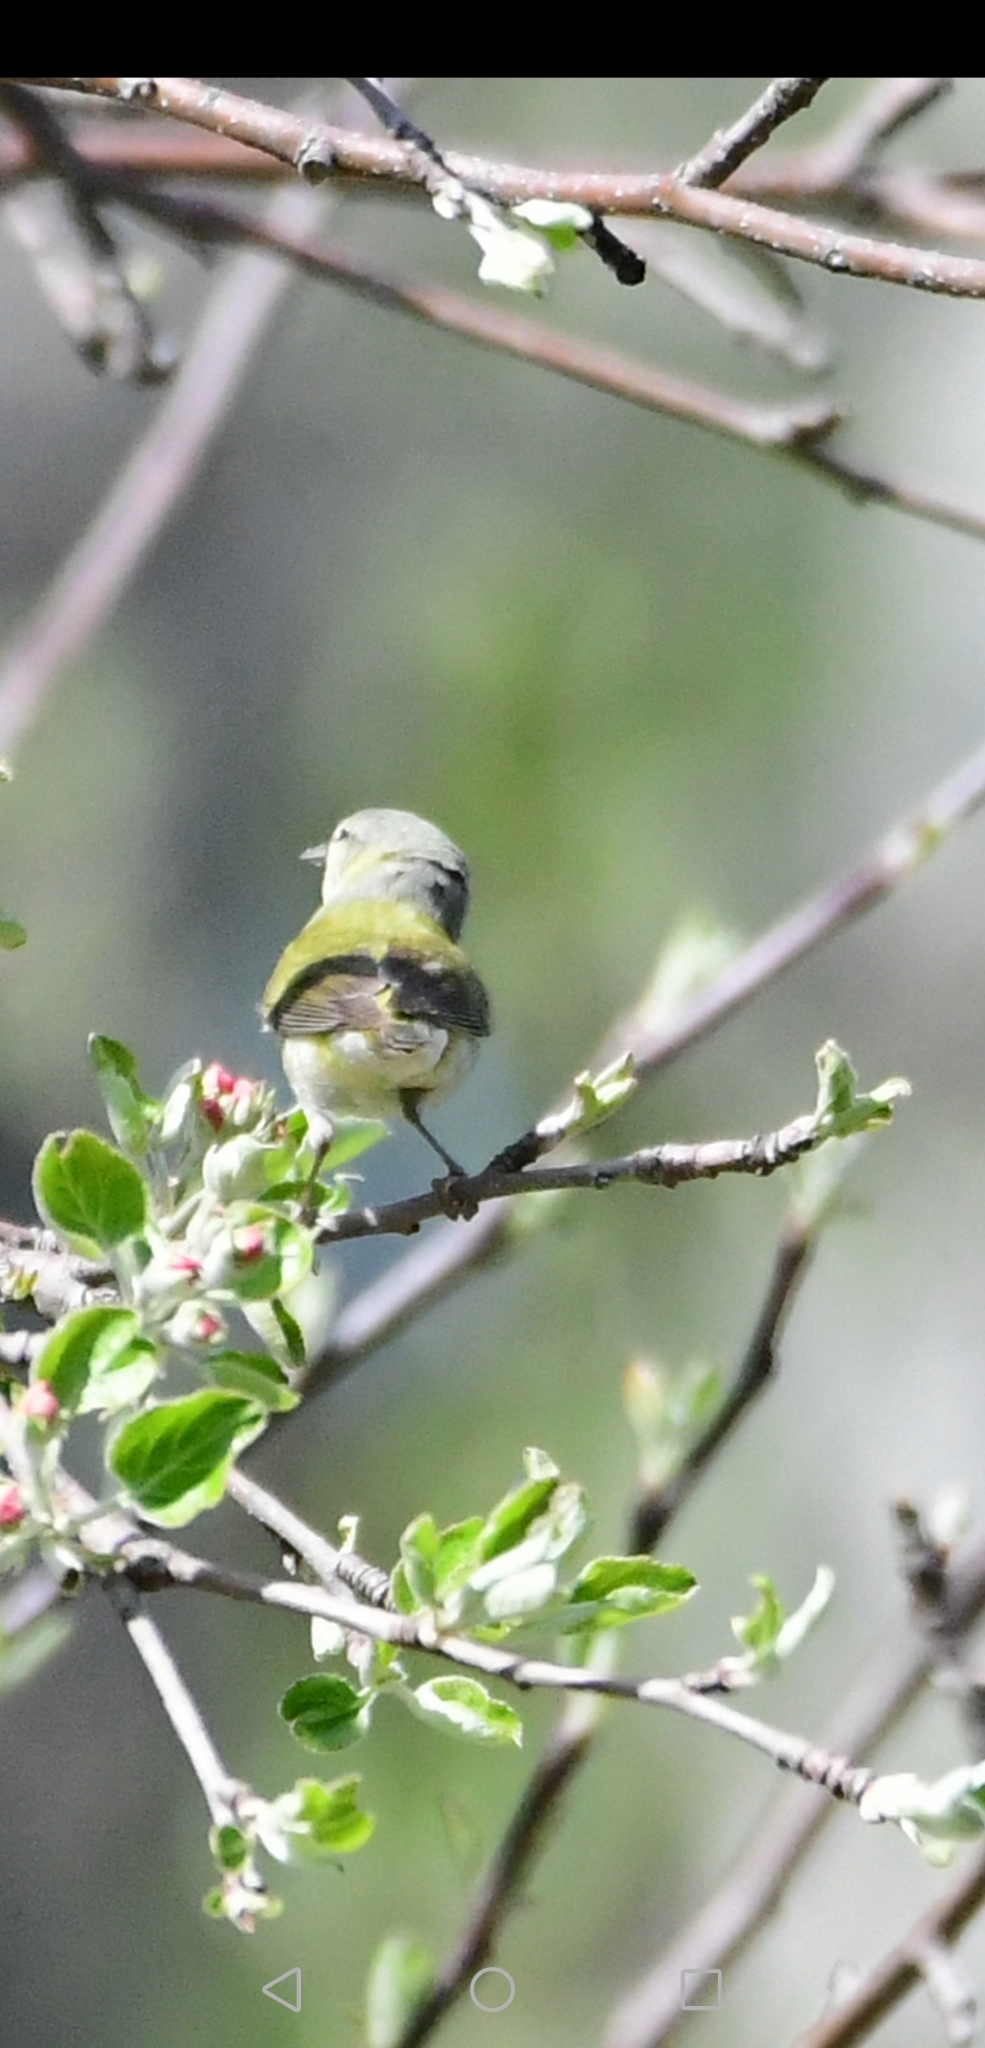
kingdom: Animalia
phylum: Chordata
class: Aves
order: Passeriformes
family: Parulidae
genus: Leiothlypis
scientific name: Leiothlypis peregrina
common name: Tennessee warbler
